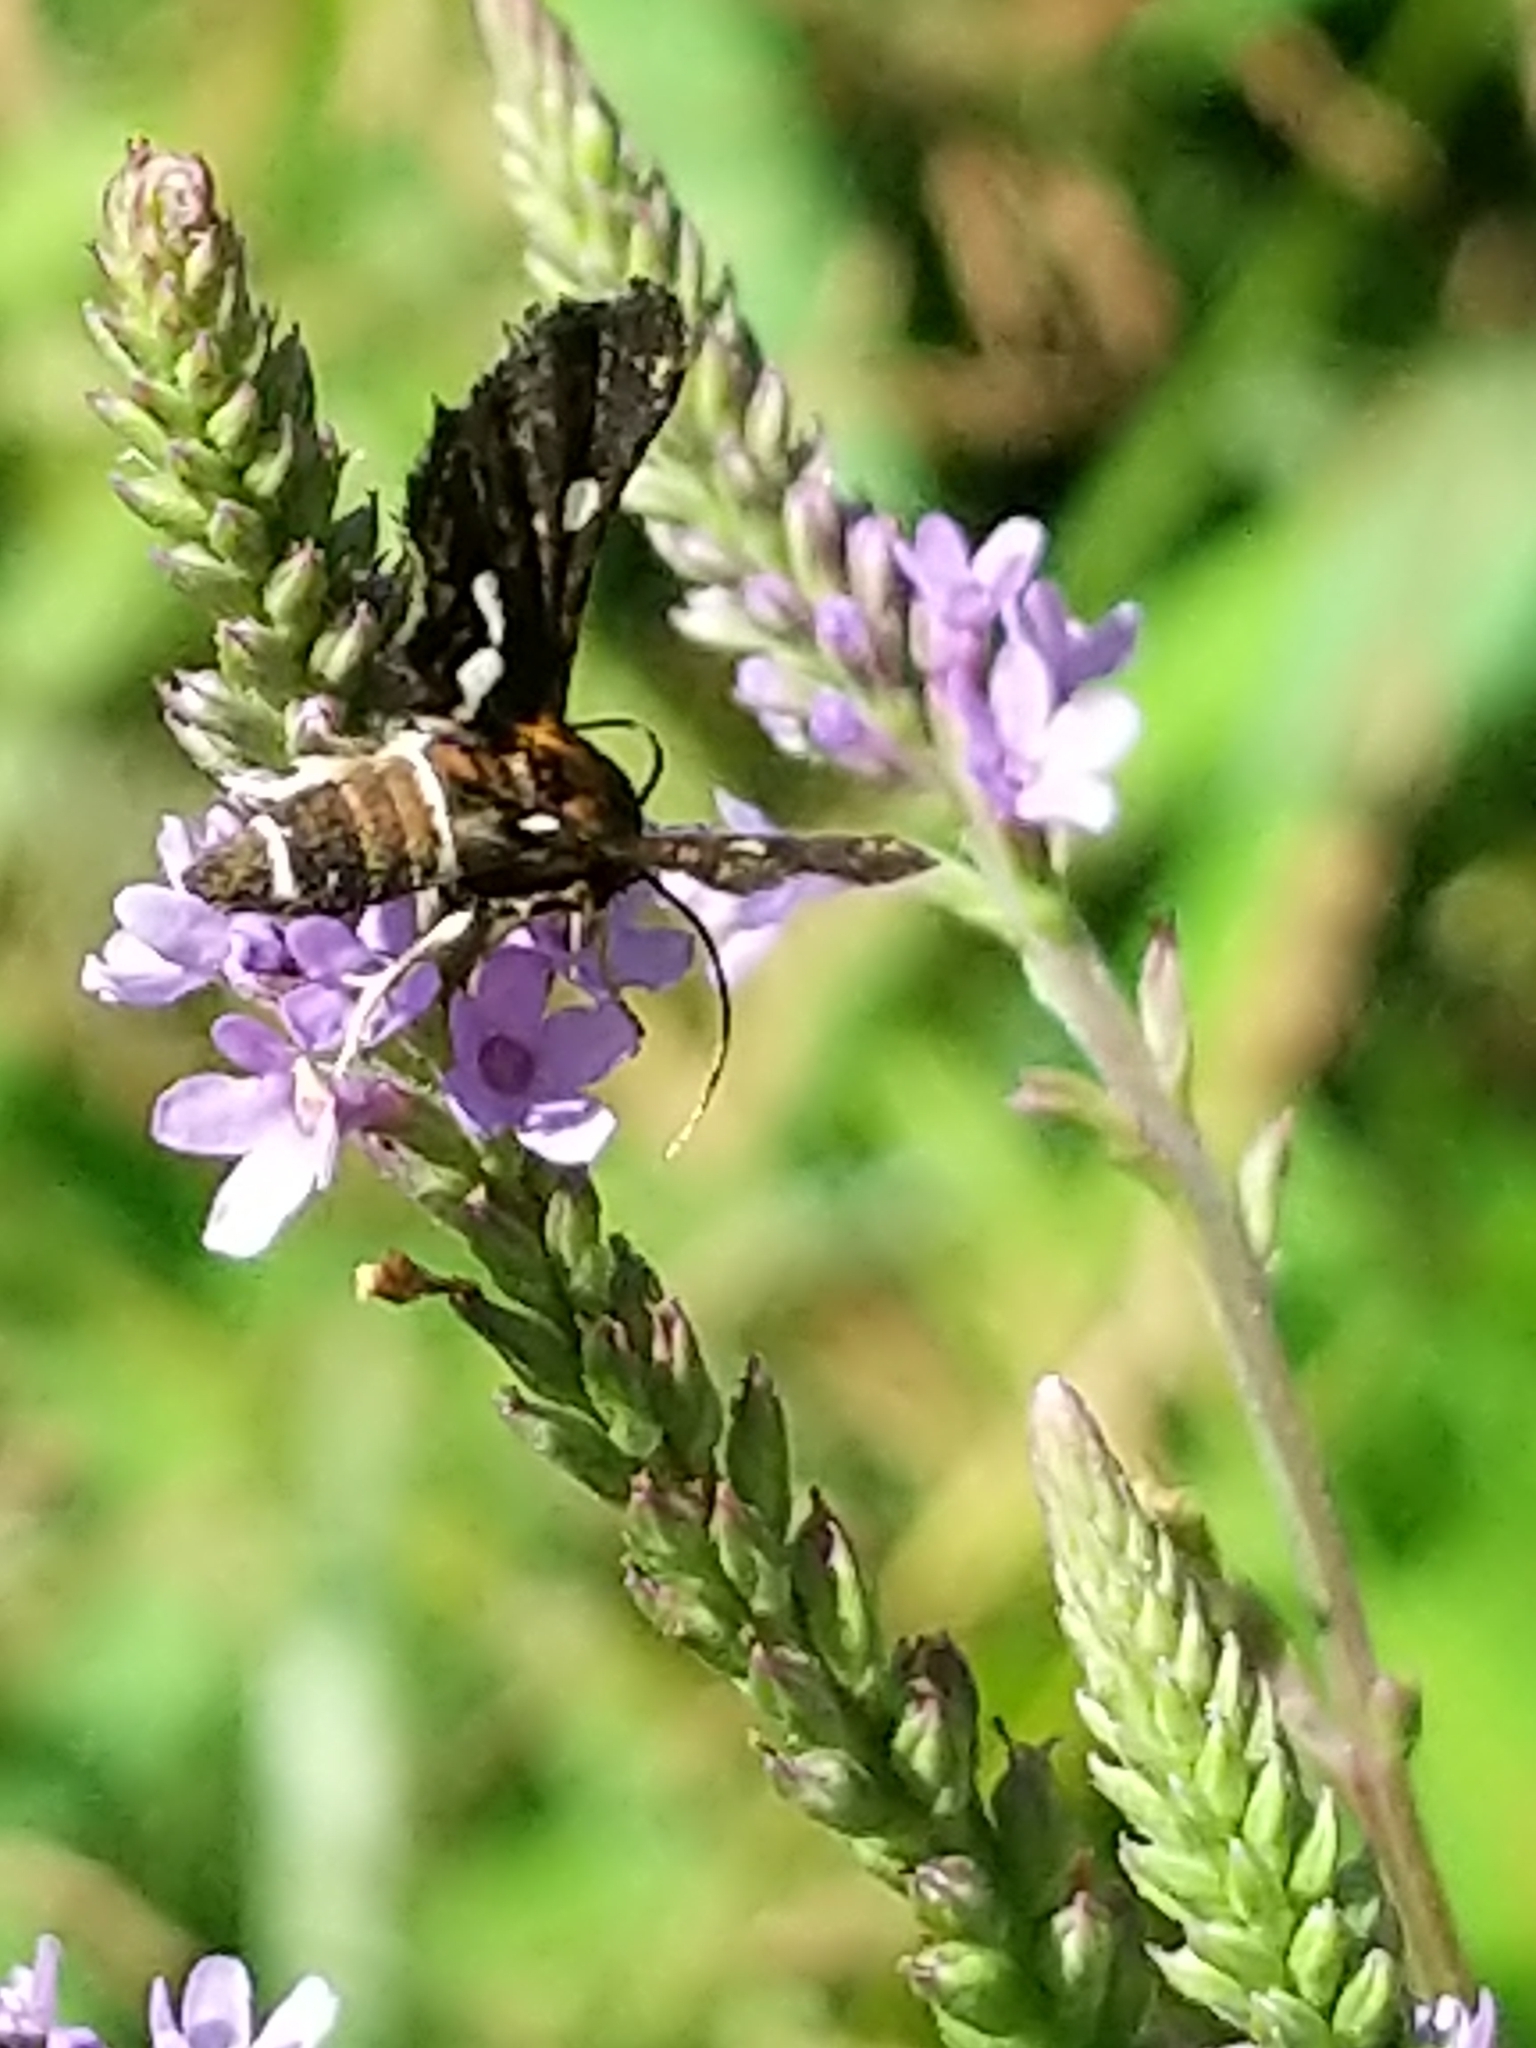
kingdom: Animalia
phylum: Arthropoda
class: Insecta
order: Lepidoptera
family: Thyrididae
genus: Thyris
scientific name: Thyris maculata
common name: Spotted thyris moth
